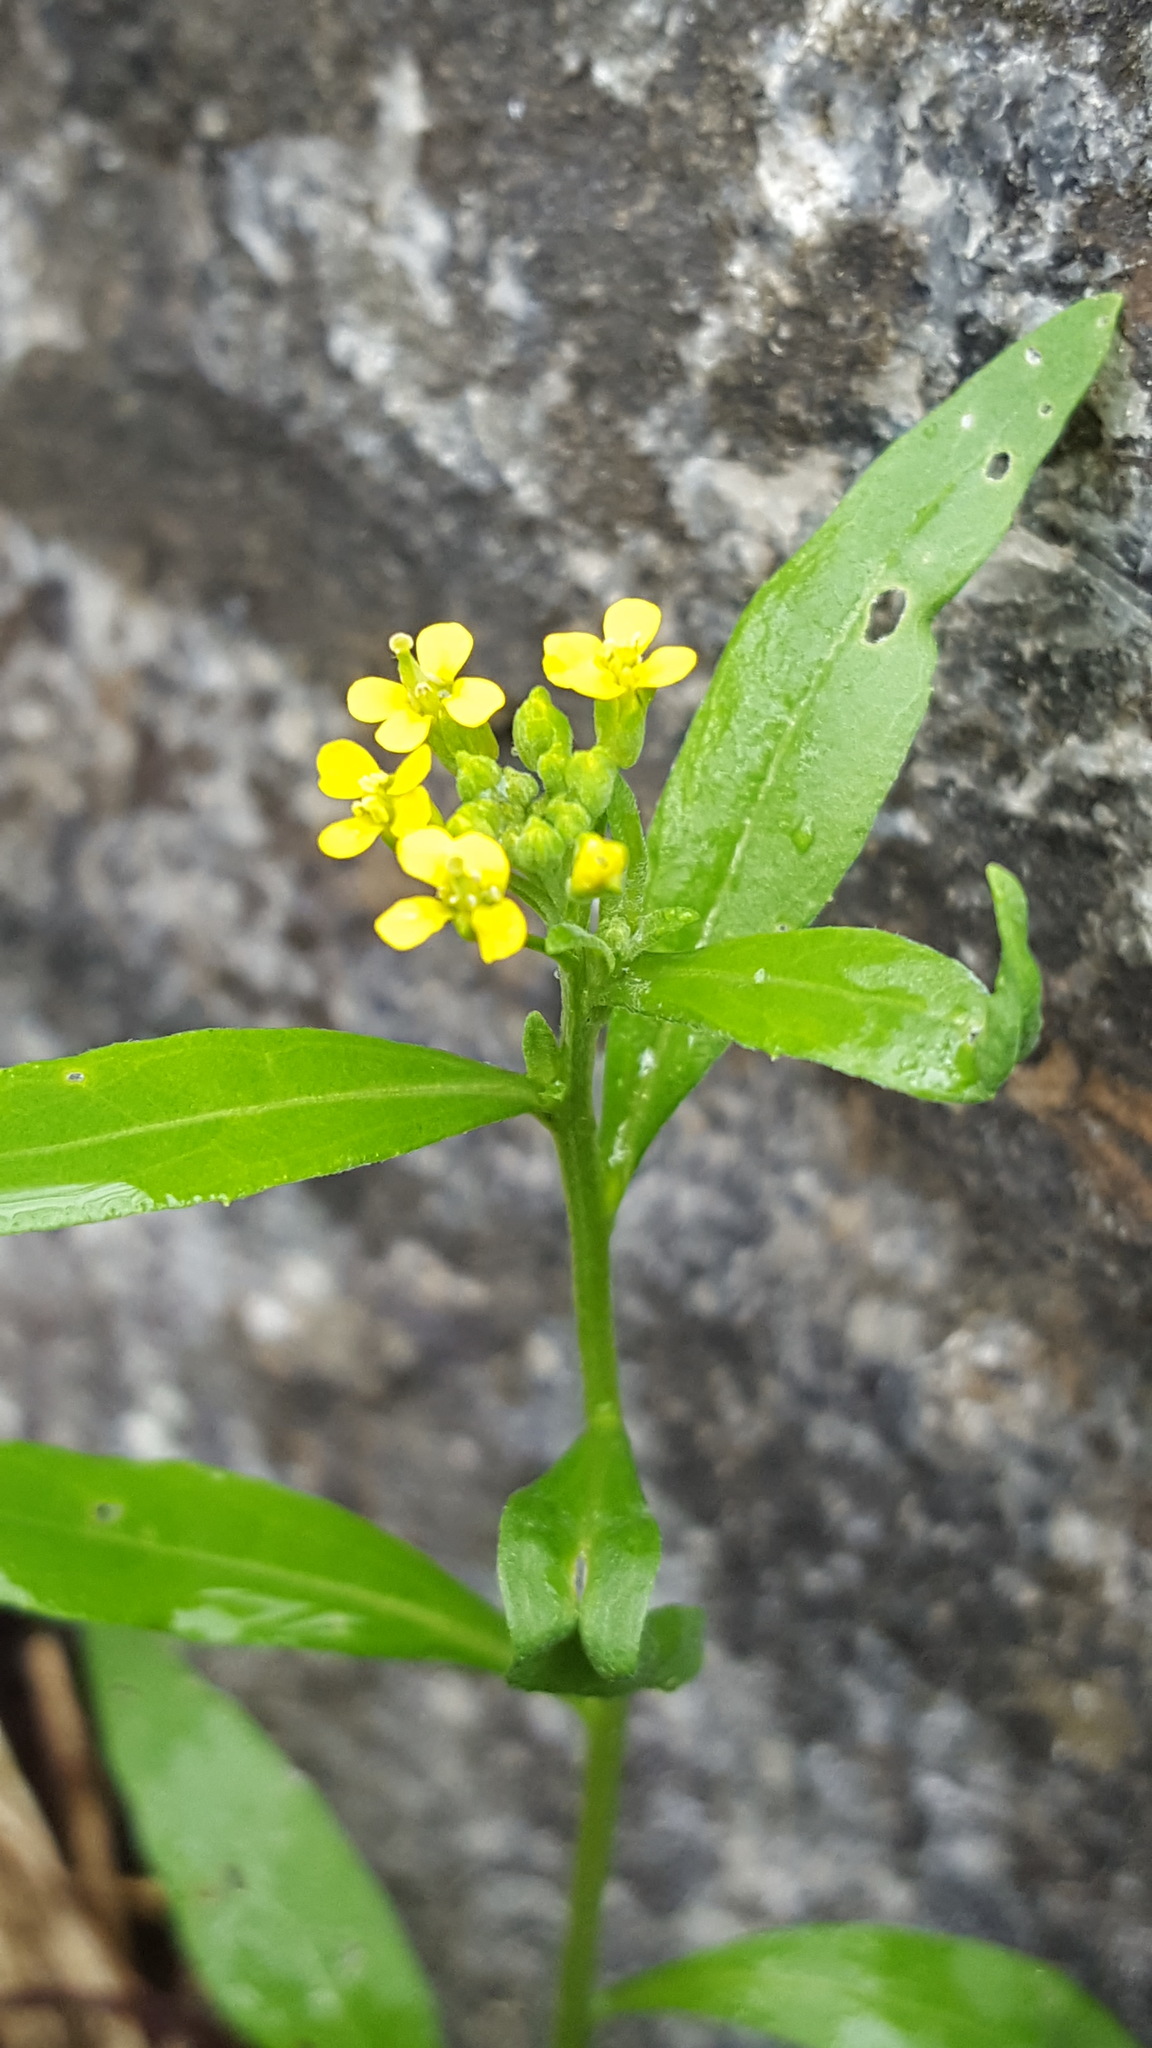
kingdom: Plantae
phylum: Tracheophyta
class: Magnoliopsida
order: Brassicales
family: Brassicaceae
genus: Erysimum
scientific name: Erysimum cheiranthoides
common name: Treacle mustard
